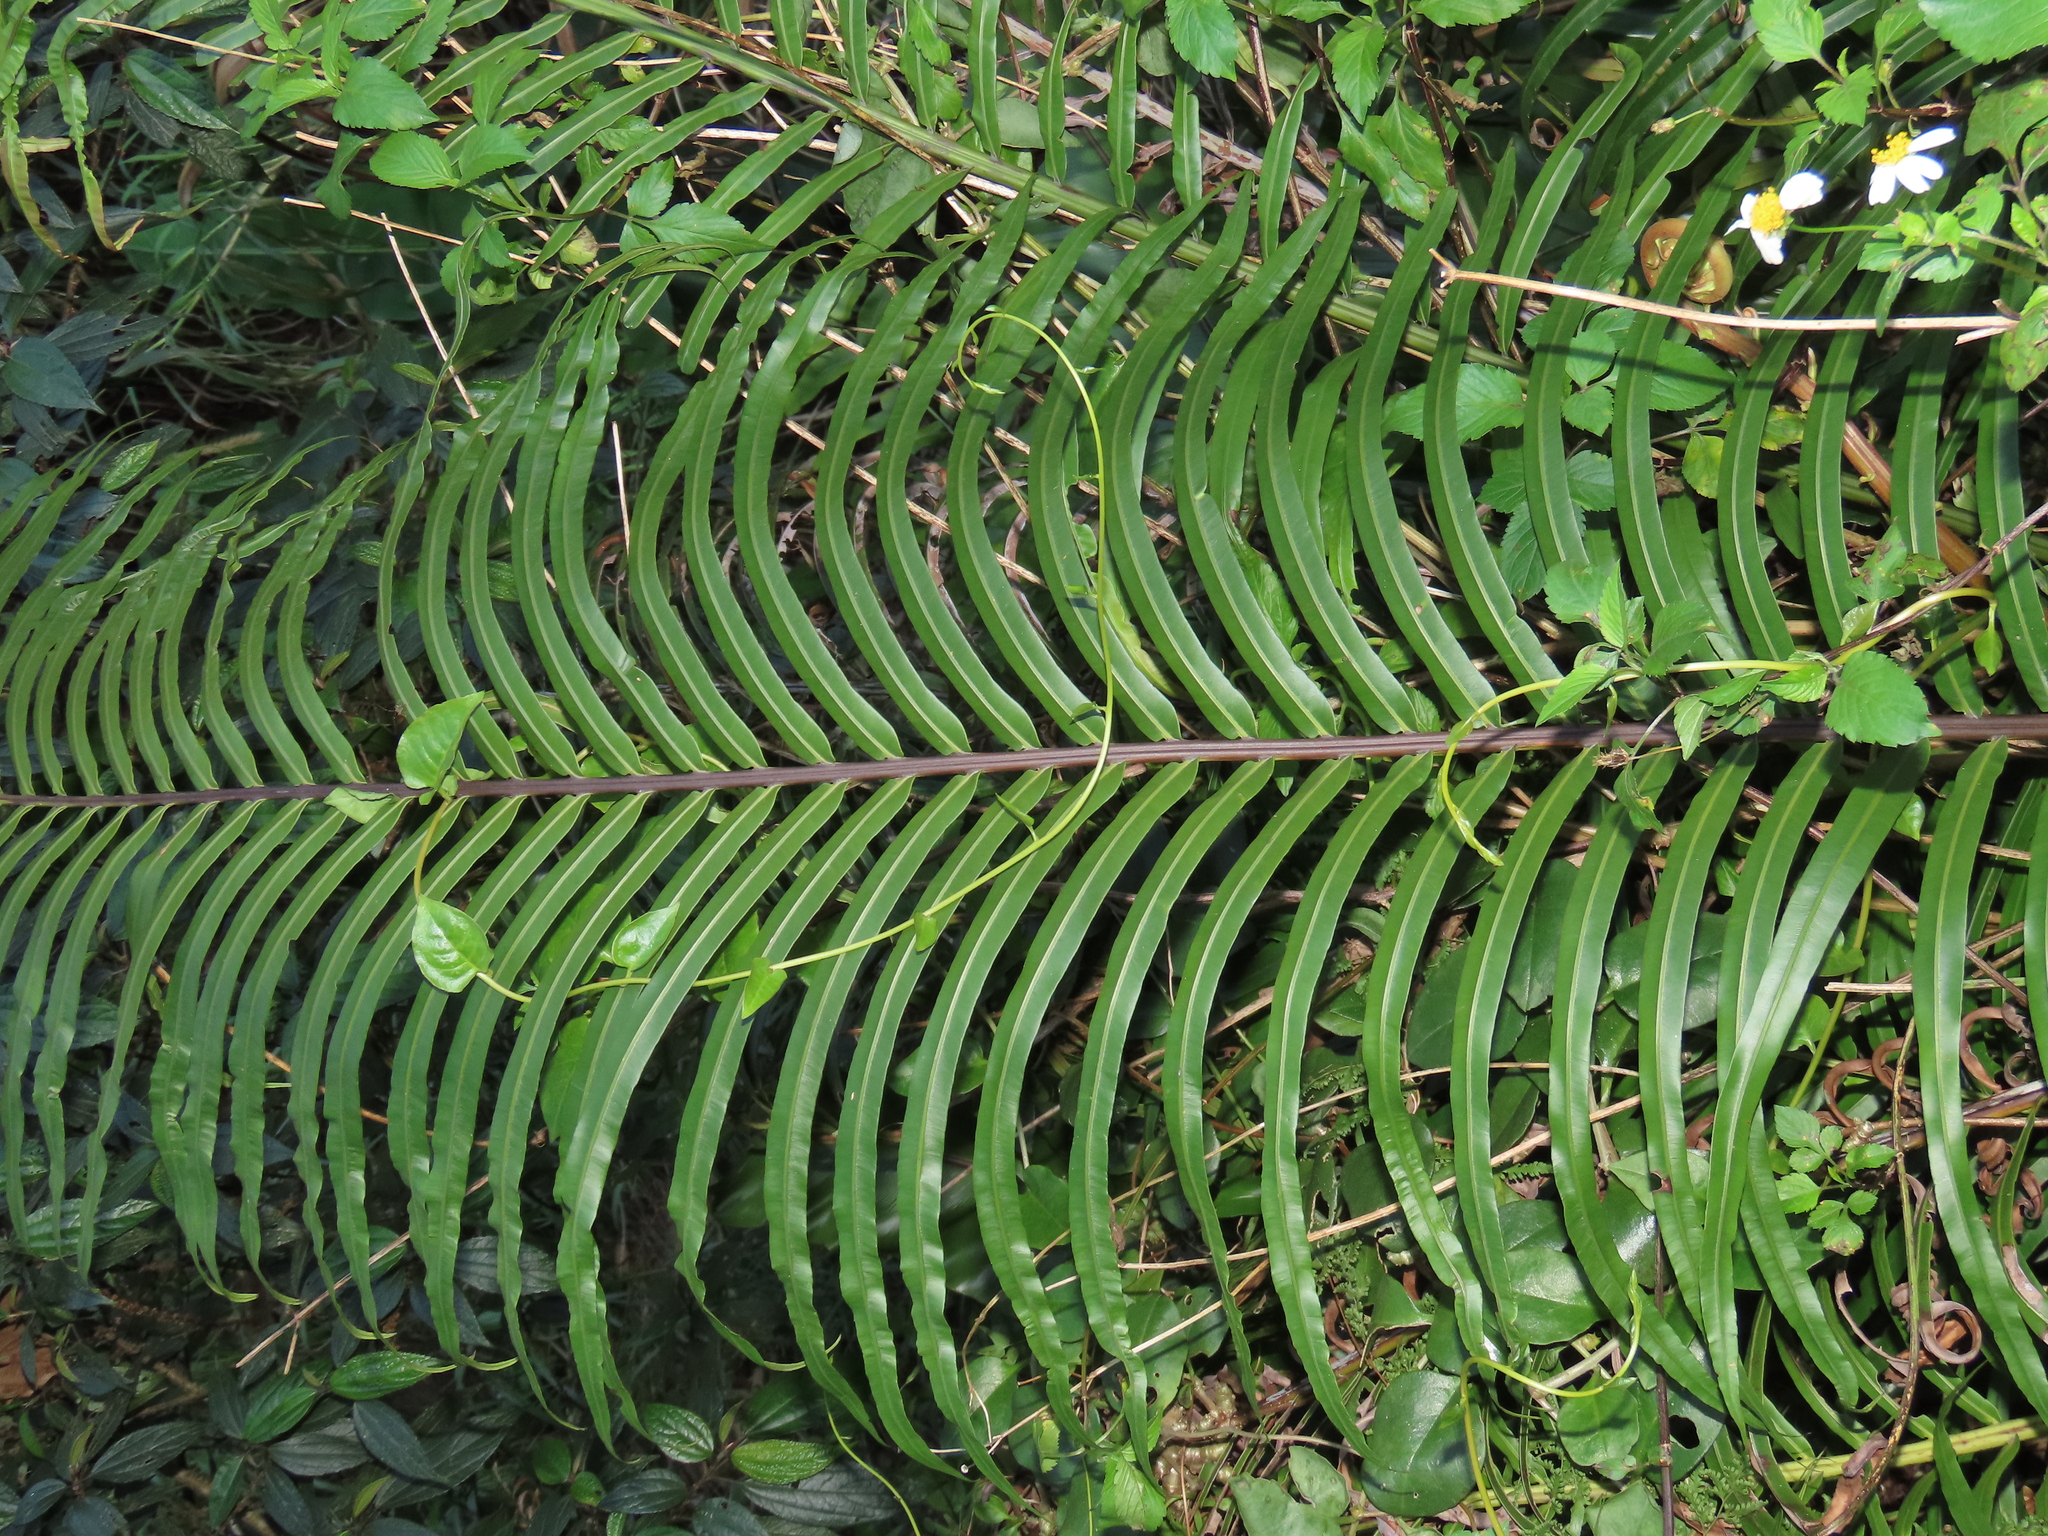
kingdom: Plantae
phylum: Tracheophyta
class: Polypodiopsida
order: Polypodiales
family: Blechnaceae
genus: Blechnopsis
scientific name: Blechnopsis orientalis
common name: Oriental blechnum
